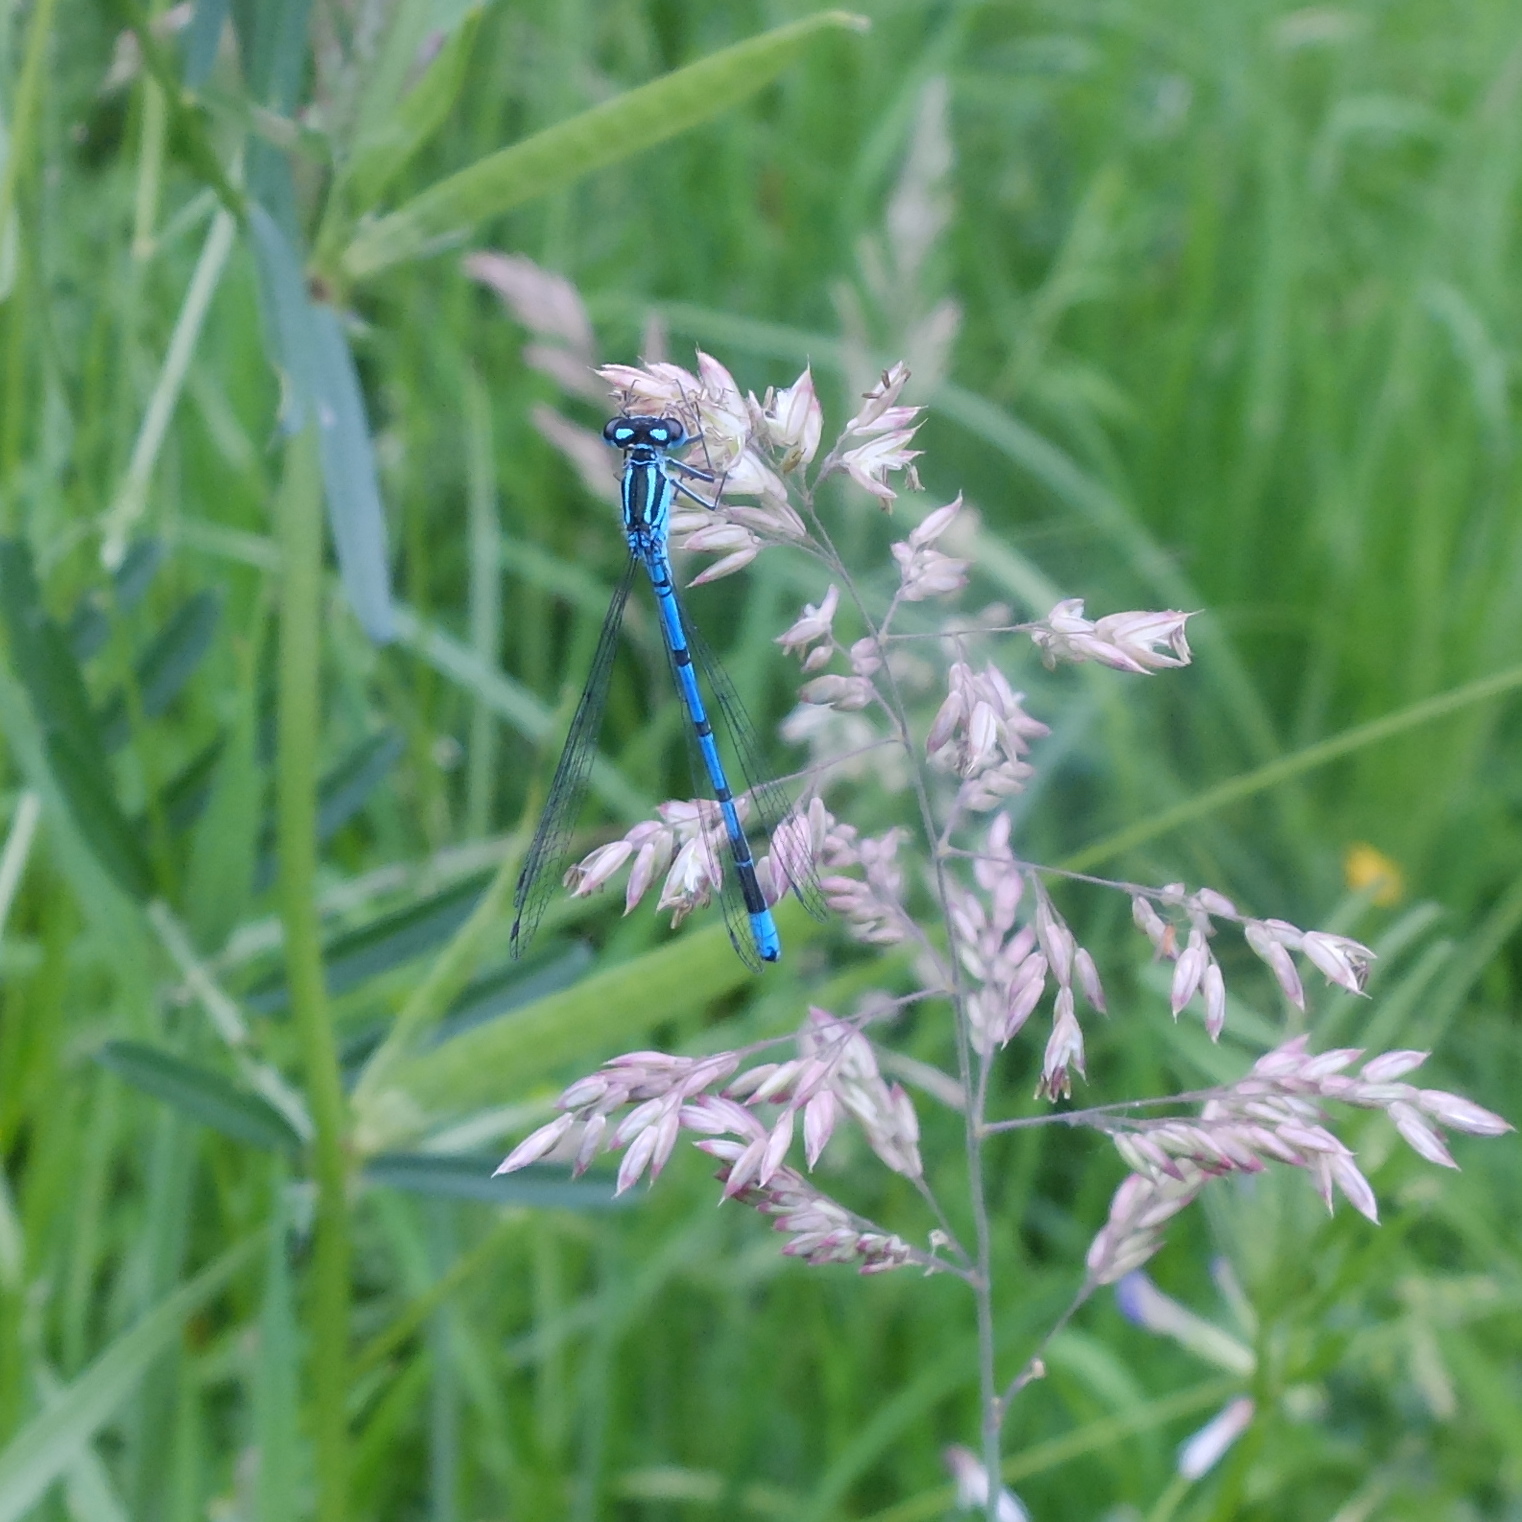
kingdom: Animalia
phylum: Arthropoda
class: Insecta
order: Odonata
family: Coenagrionidae
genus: Coenagrion
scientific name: Coenagrion puella
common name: Azure damselfly
